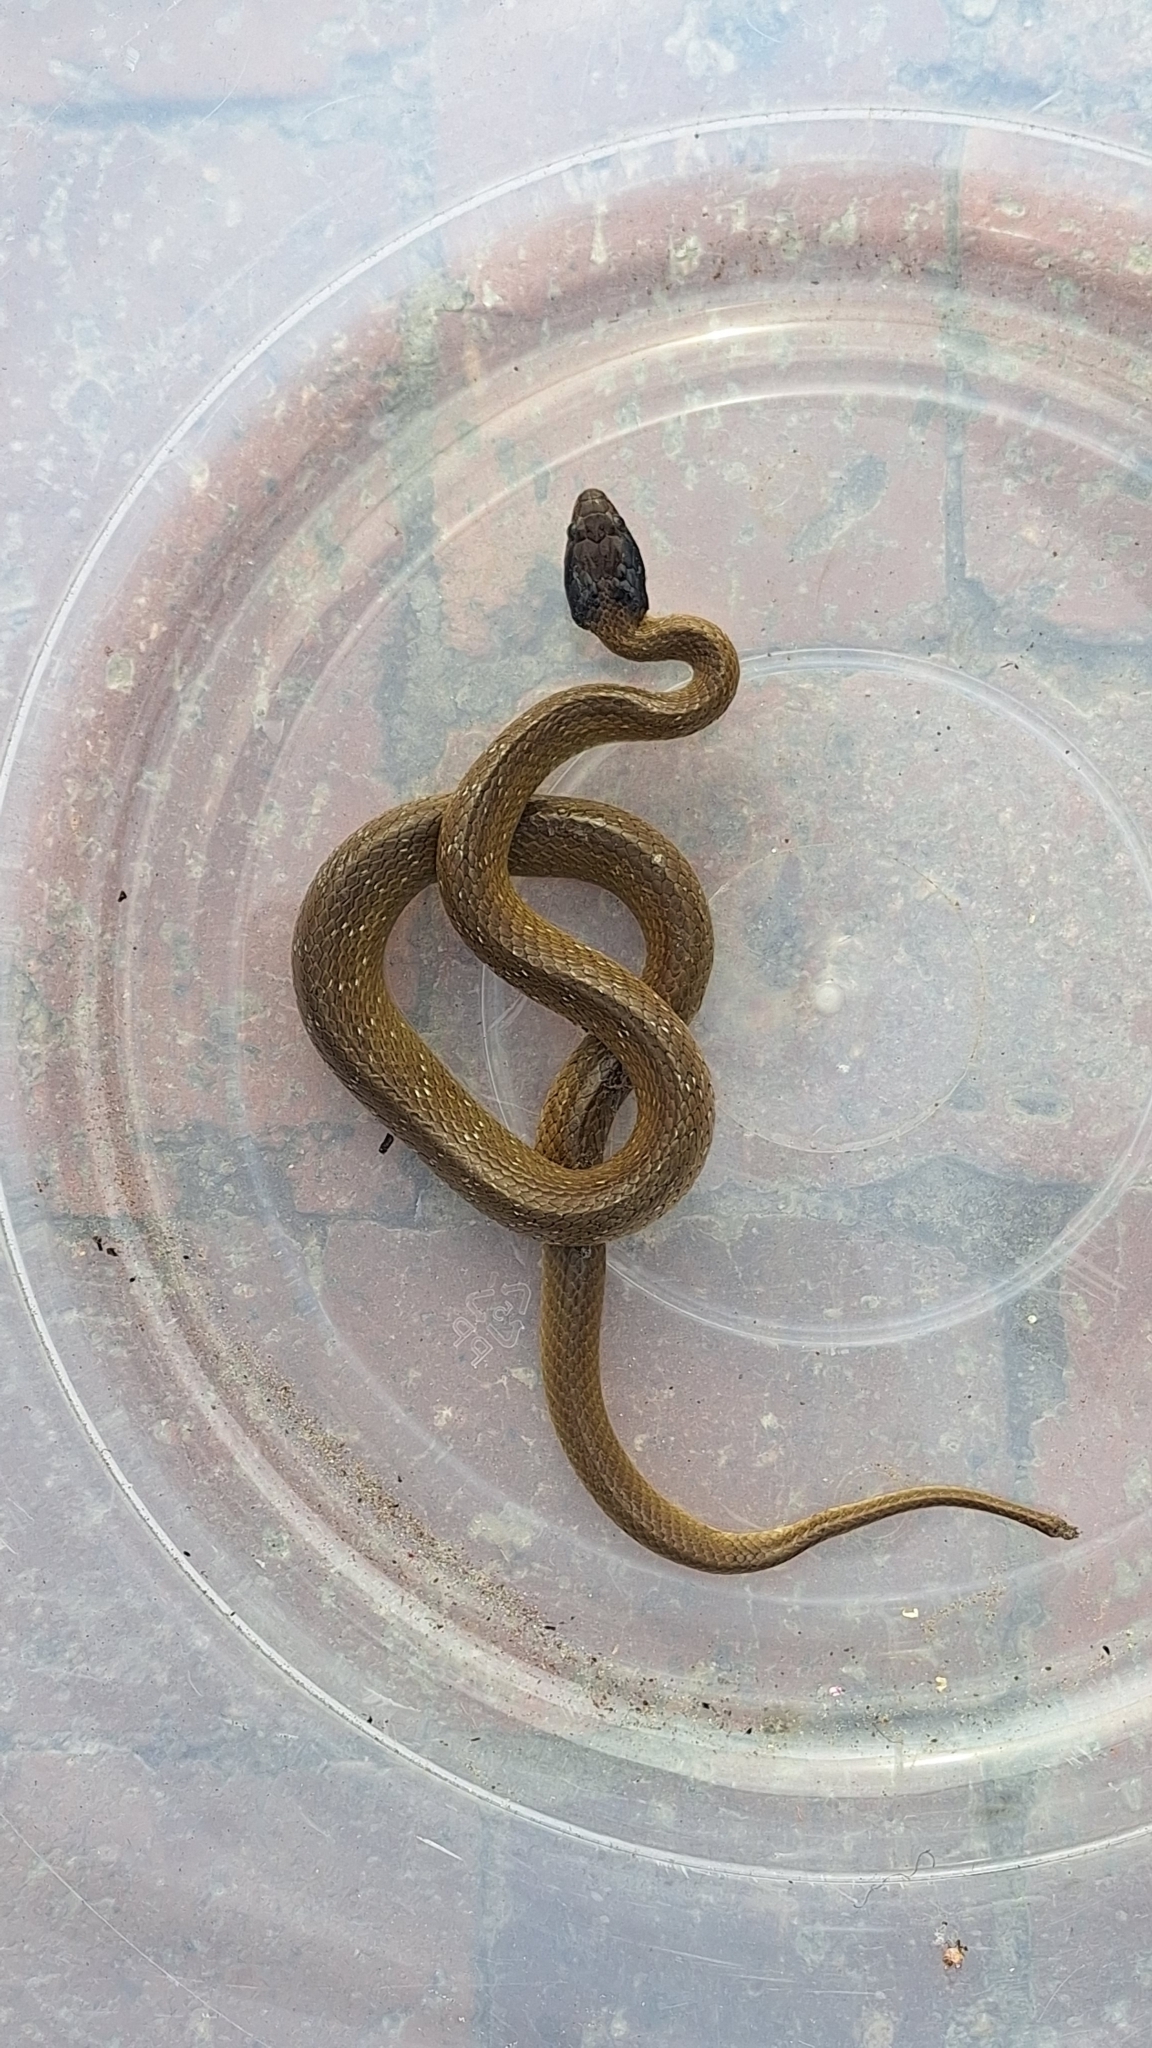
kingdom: Animalia
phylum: Chordata
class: Squamata
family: Colubridae
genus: Crotaphopeltis
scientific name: Crotaphopeltis hotamboeia
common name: Red-lipped snake
